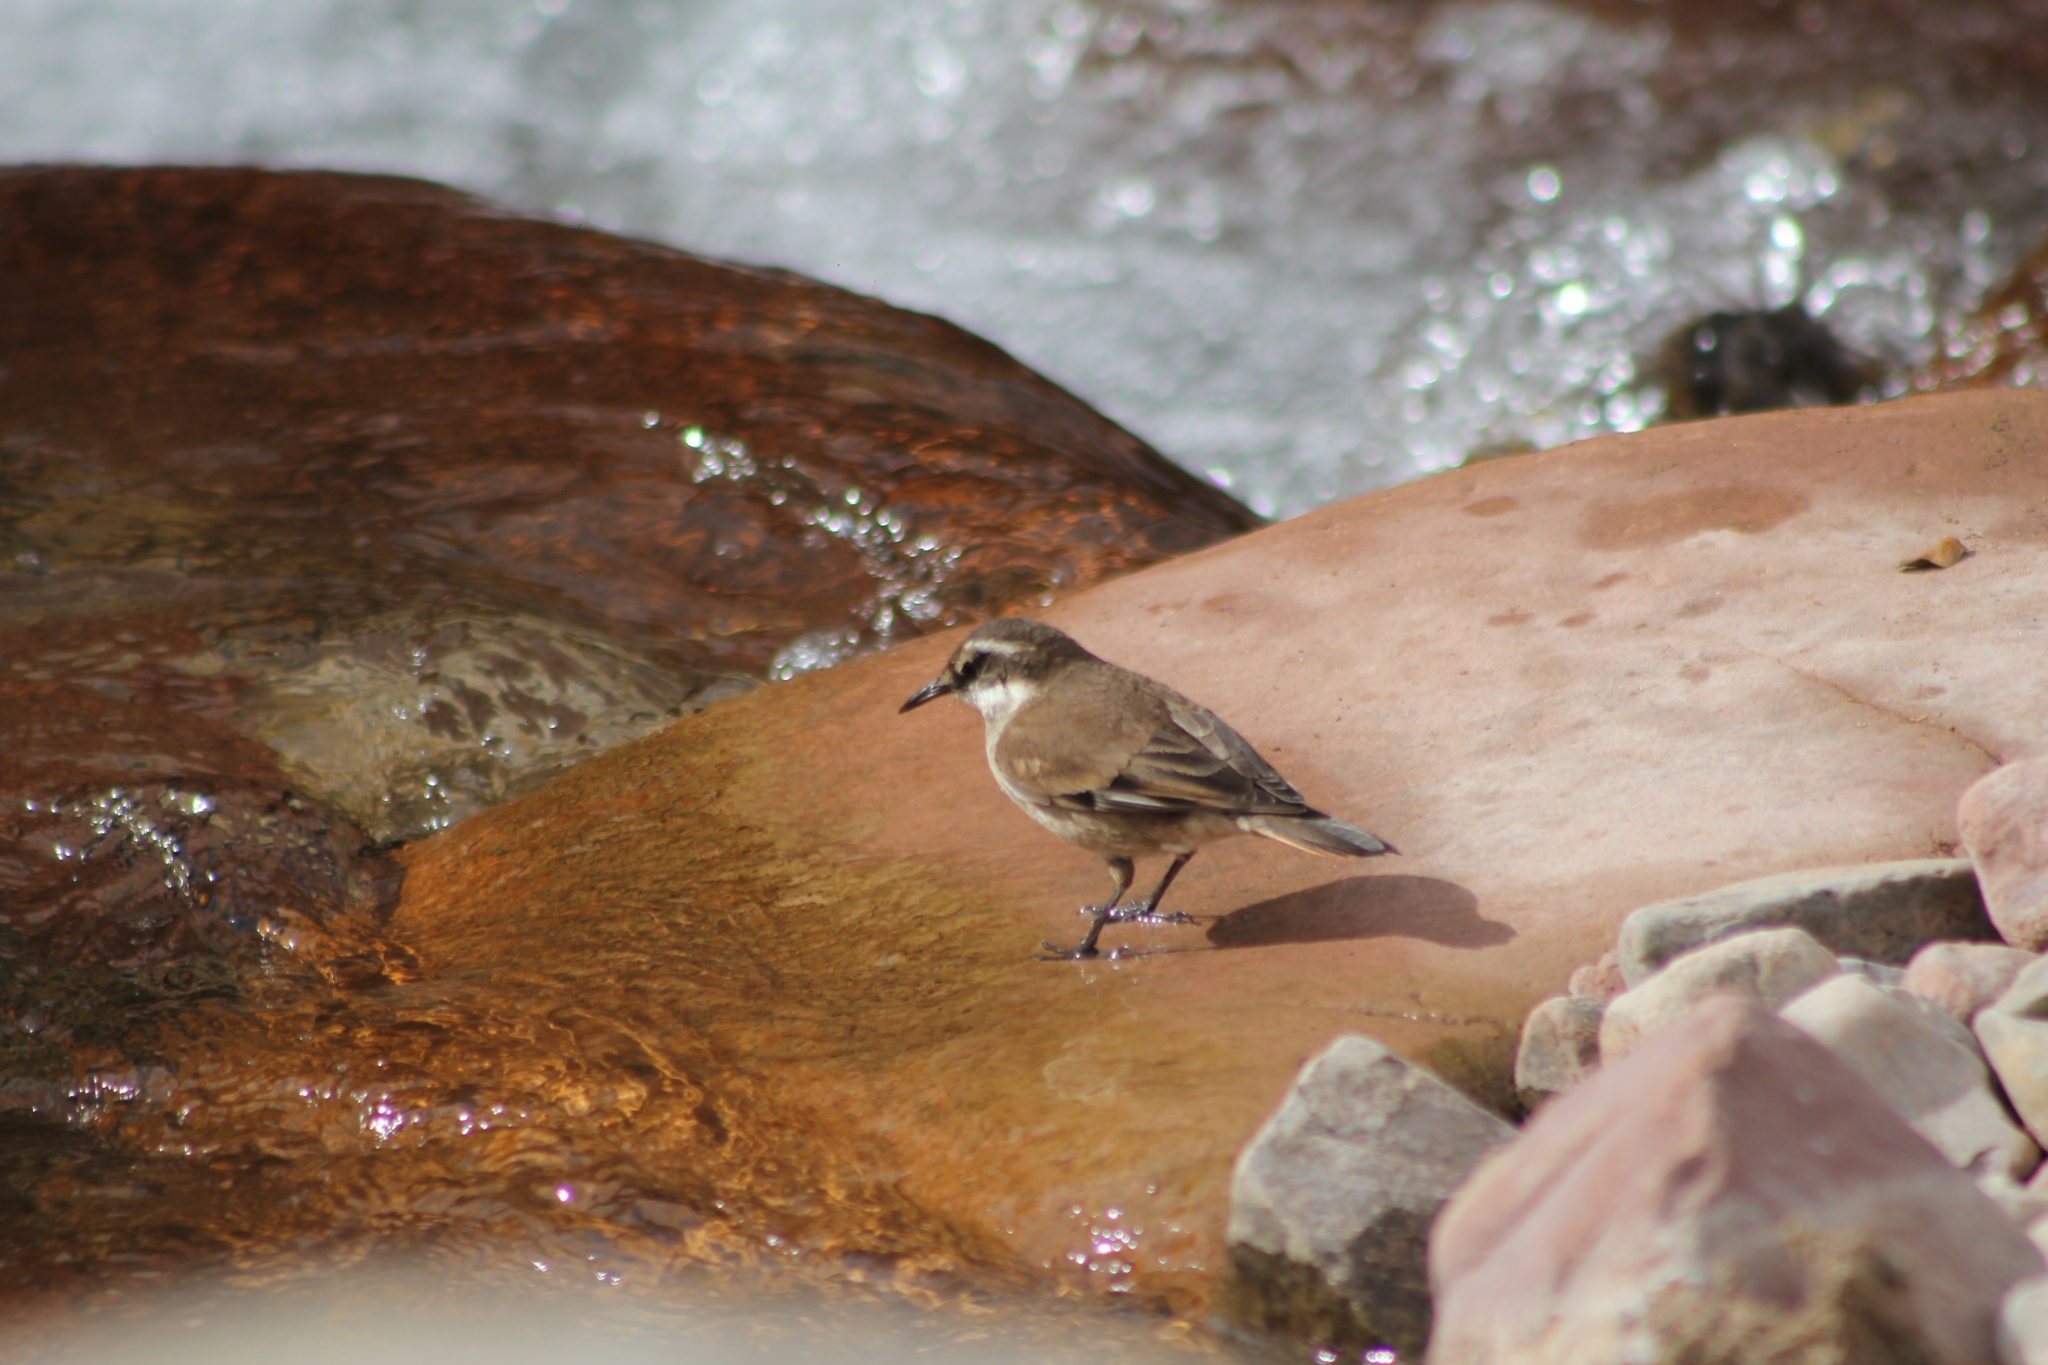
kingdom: Animalia
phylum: Chordata
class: Aves
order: Passeriformes
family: Furnariidae
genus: Cinclodes
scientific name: Cinclodes fuscus
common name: Buff-winged cinclodes
